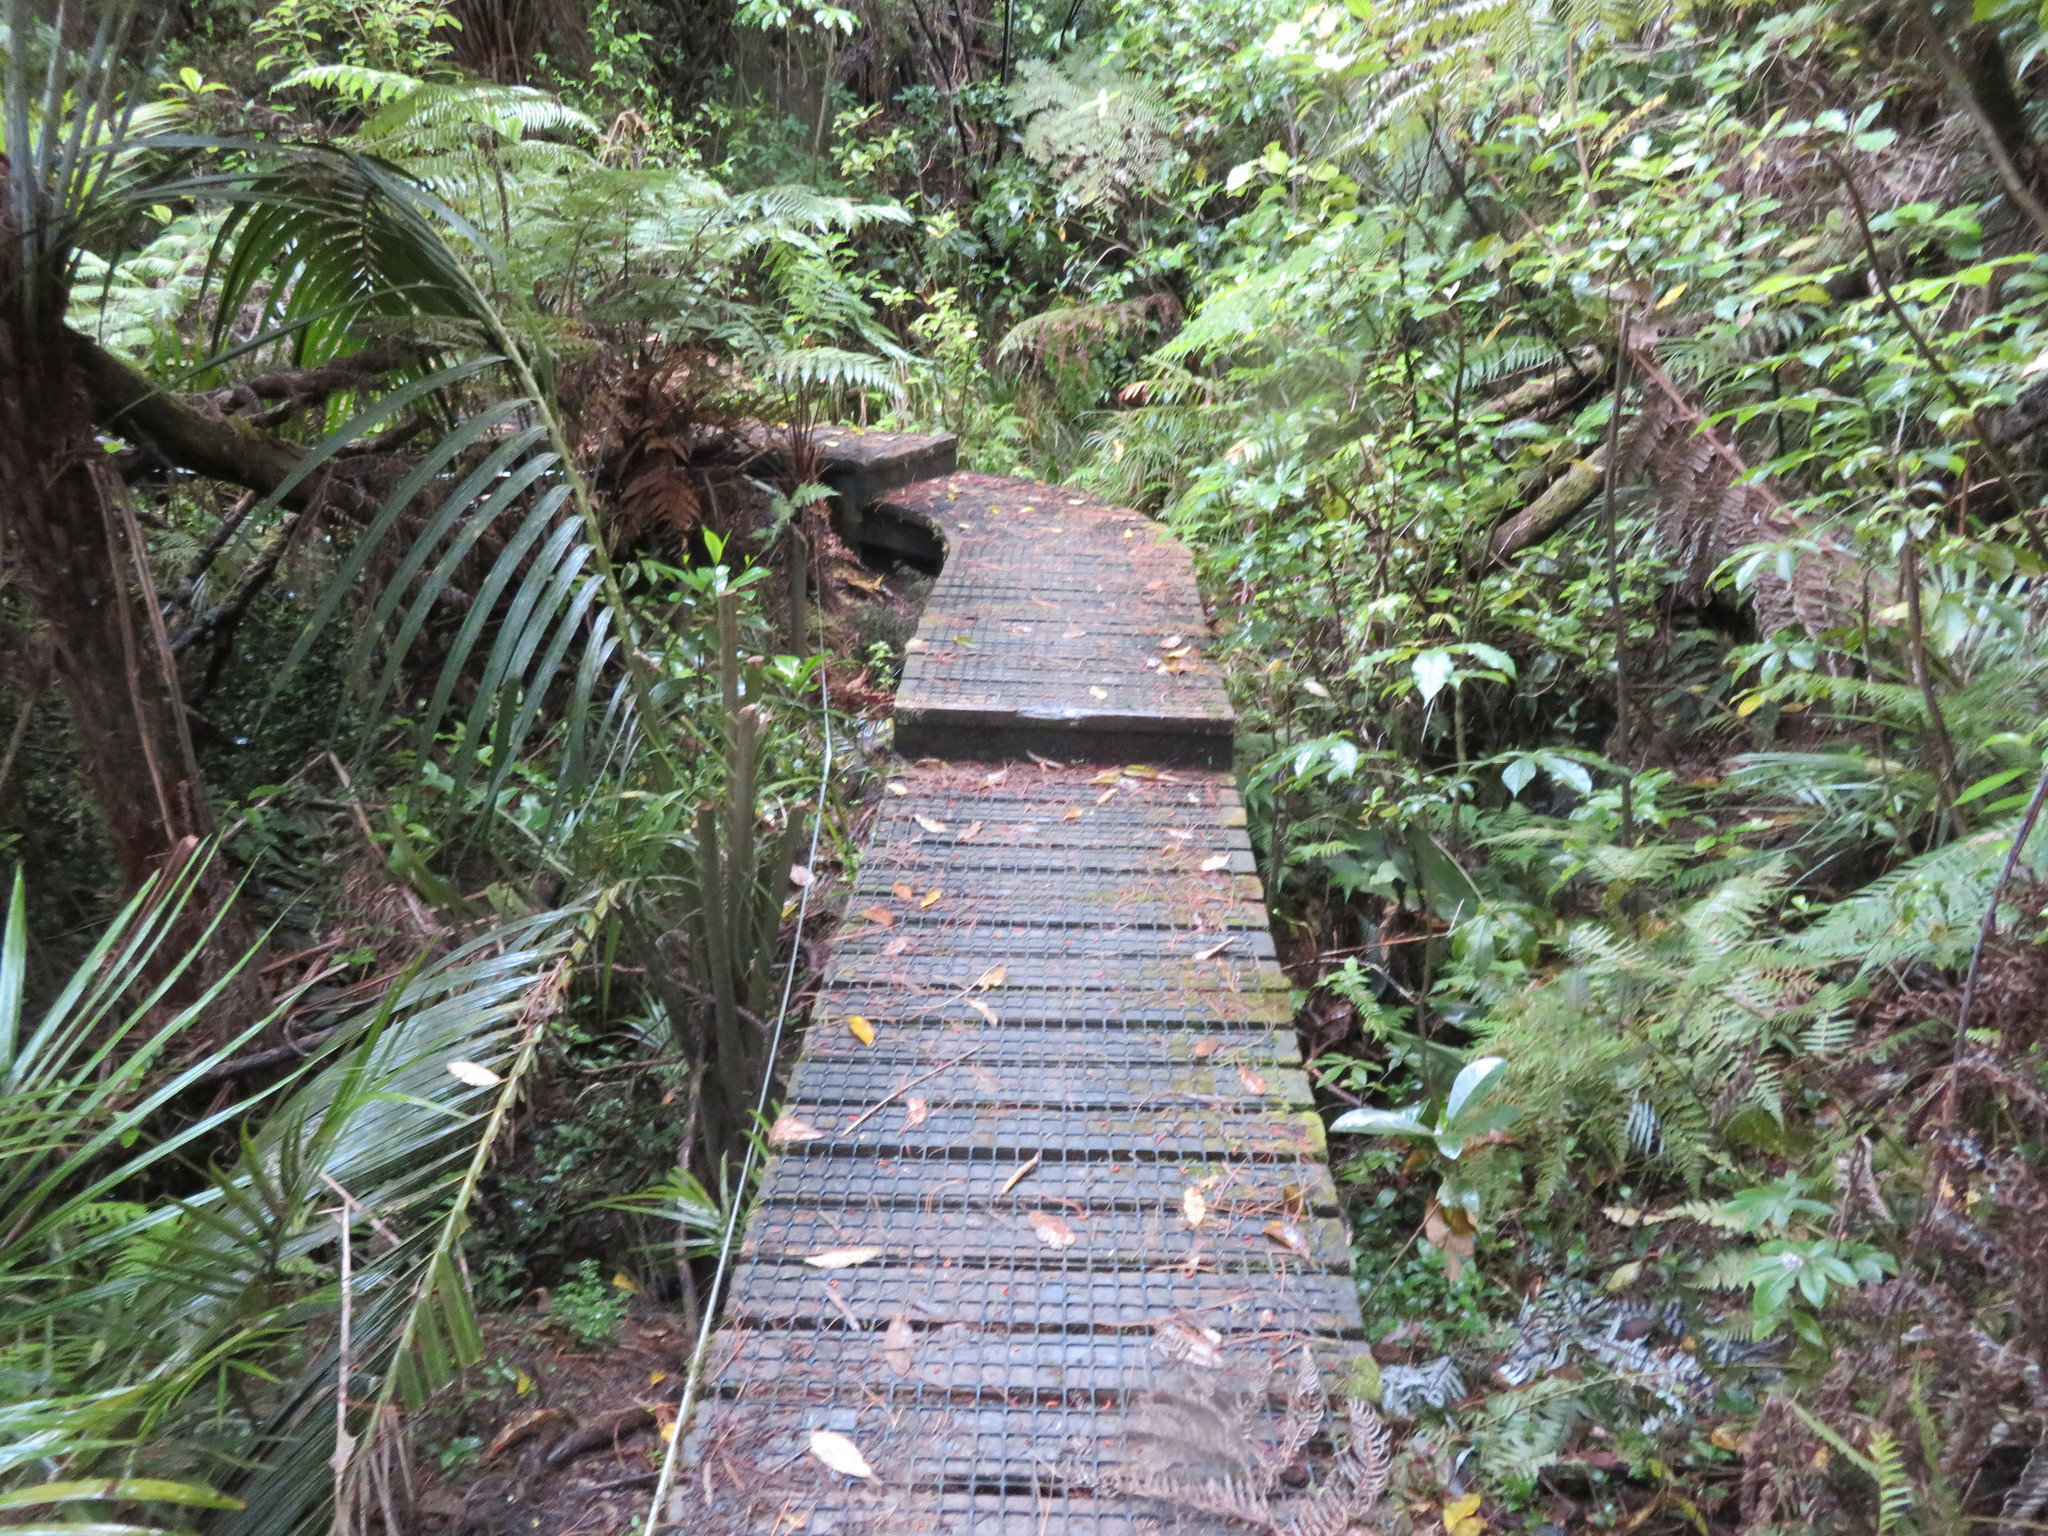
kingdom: Plantae
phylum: Tracheophyta
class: Liliopsida
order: Arecales
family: Arecaceae
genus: Rhopalostylis
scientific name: Rhopalostylis sapida
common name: Feather-duster palm
